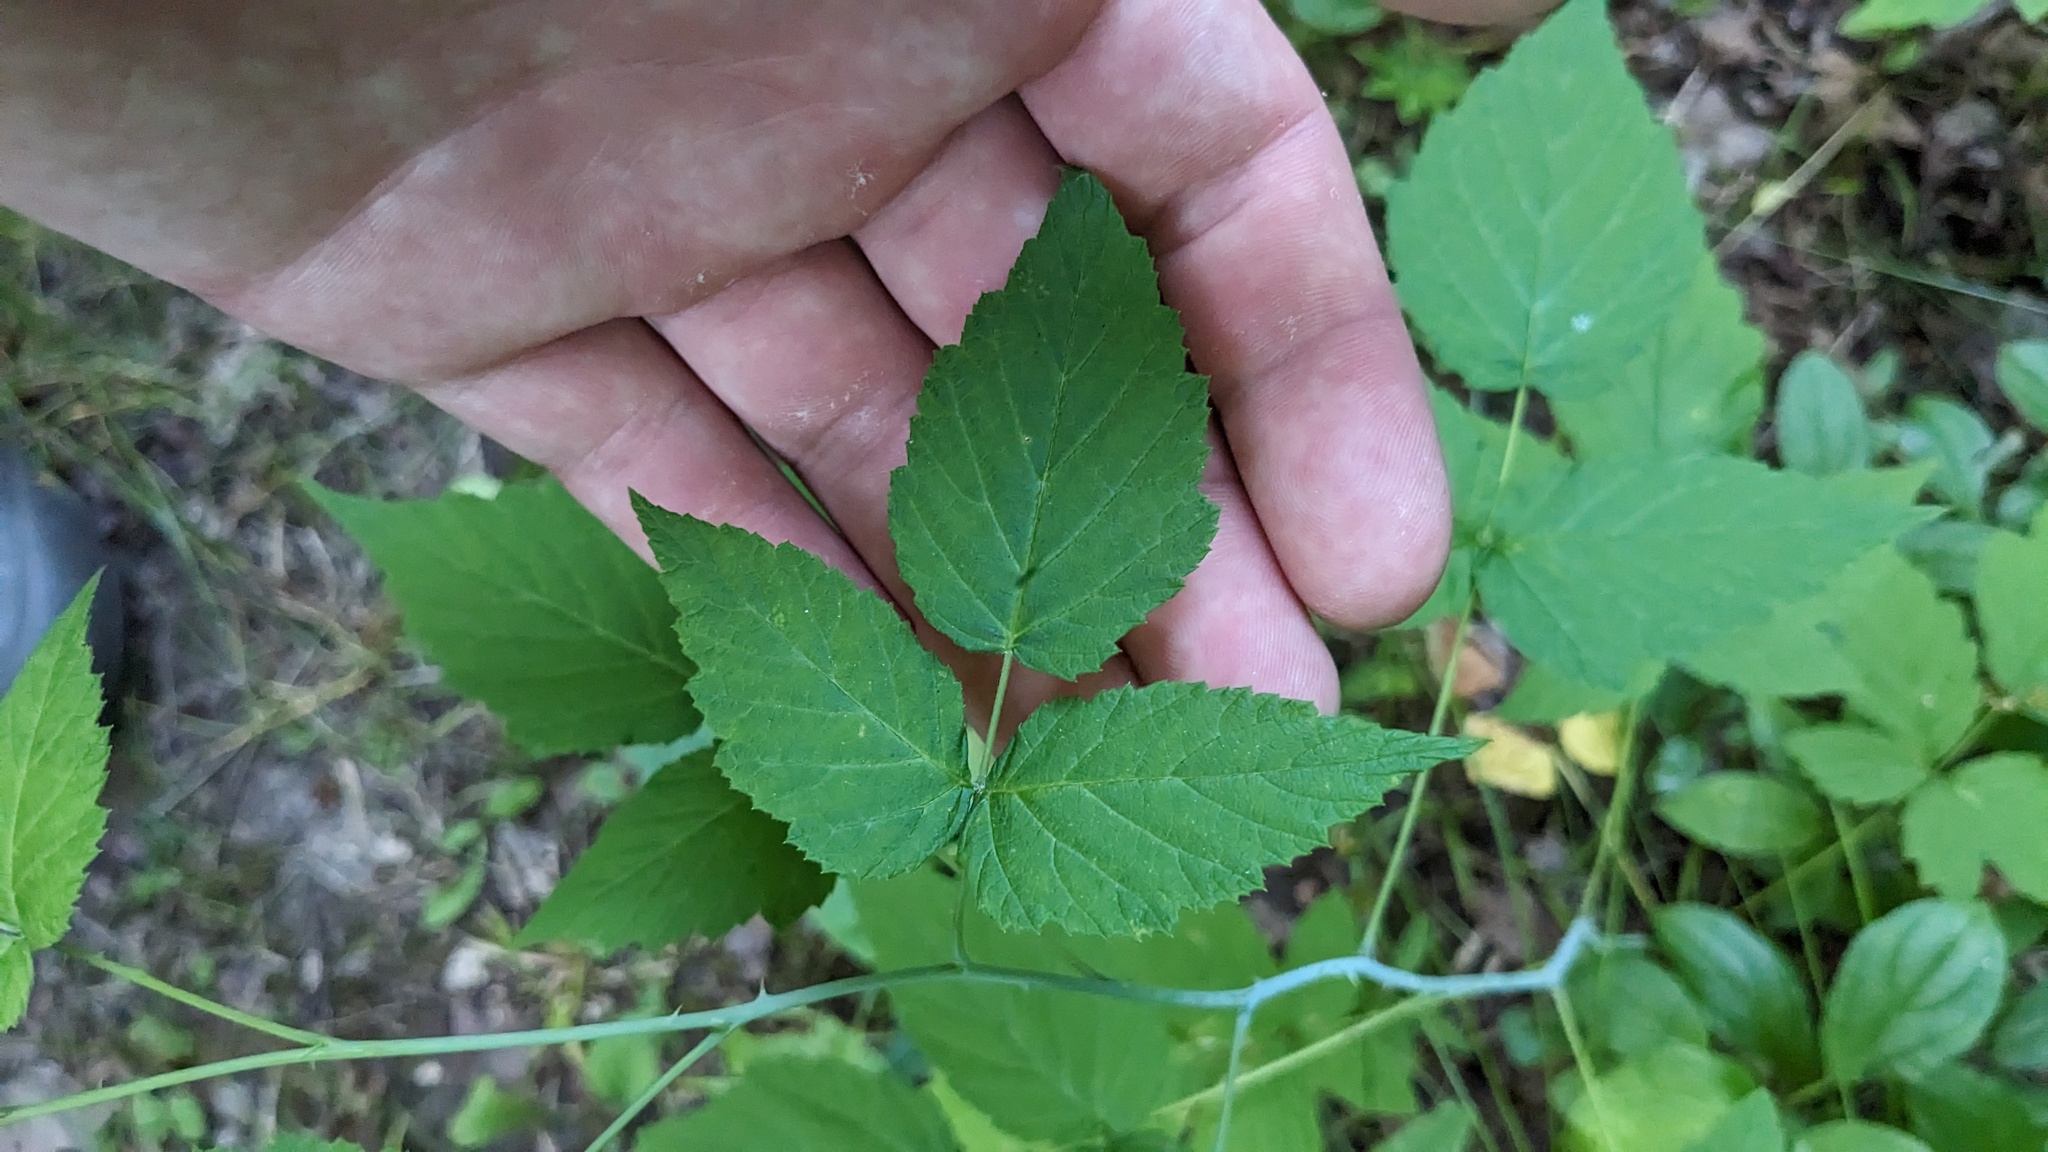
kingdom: Plantae
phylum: Tracheophyta
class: Magnoliopsida
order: Rosales
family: Rosaceae
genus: Rubus
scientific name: Rubus occidentalis
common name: Black raspberry
